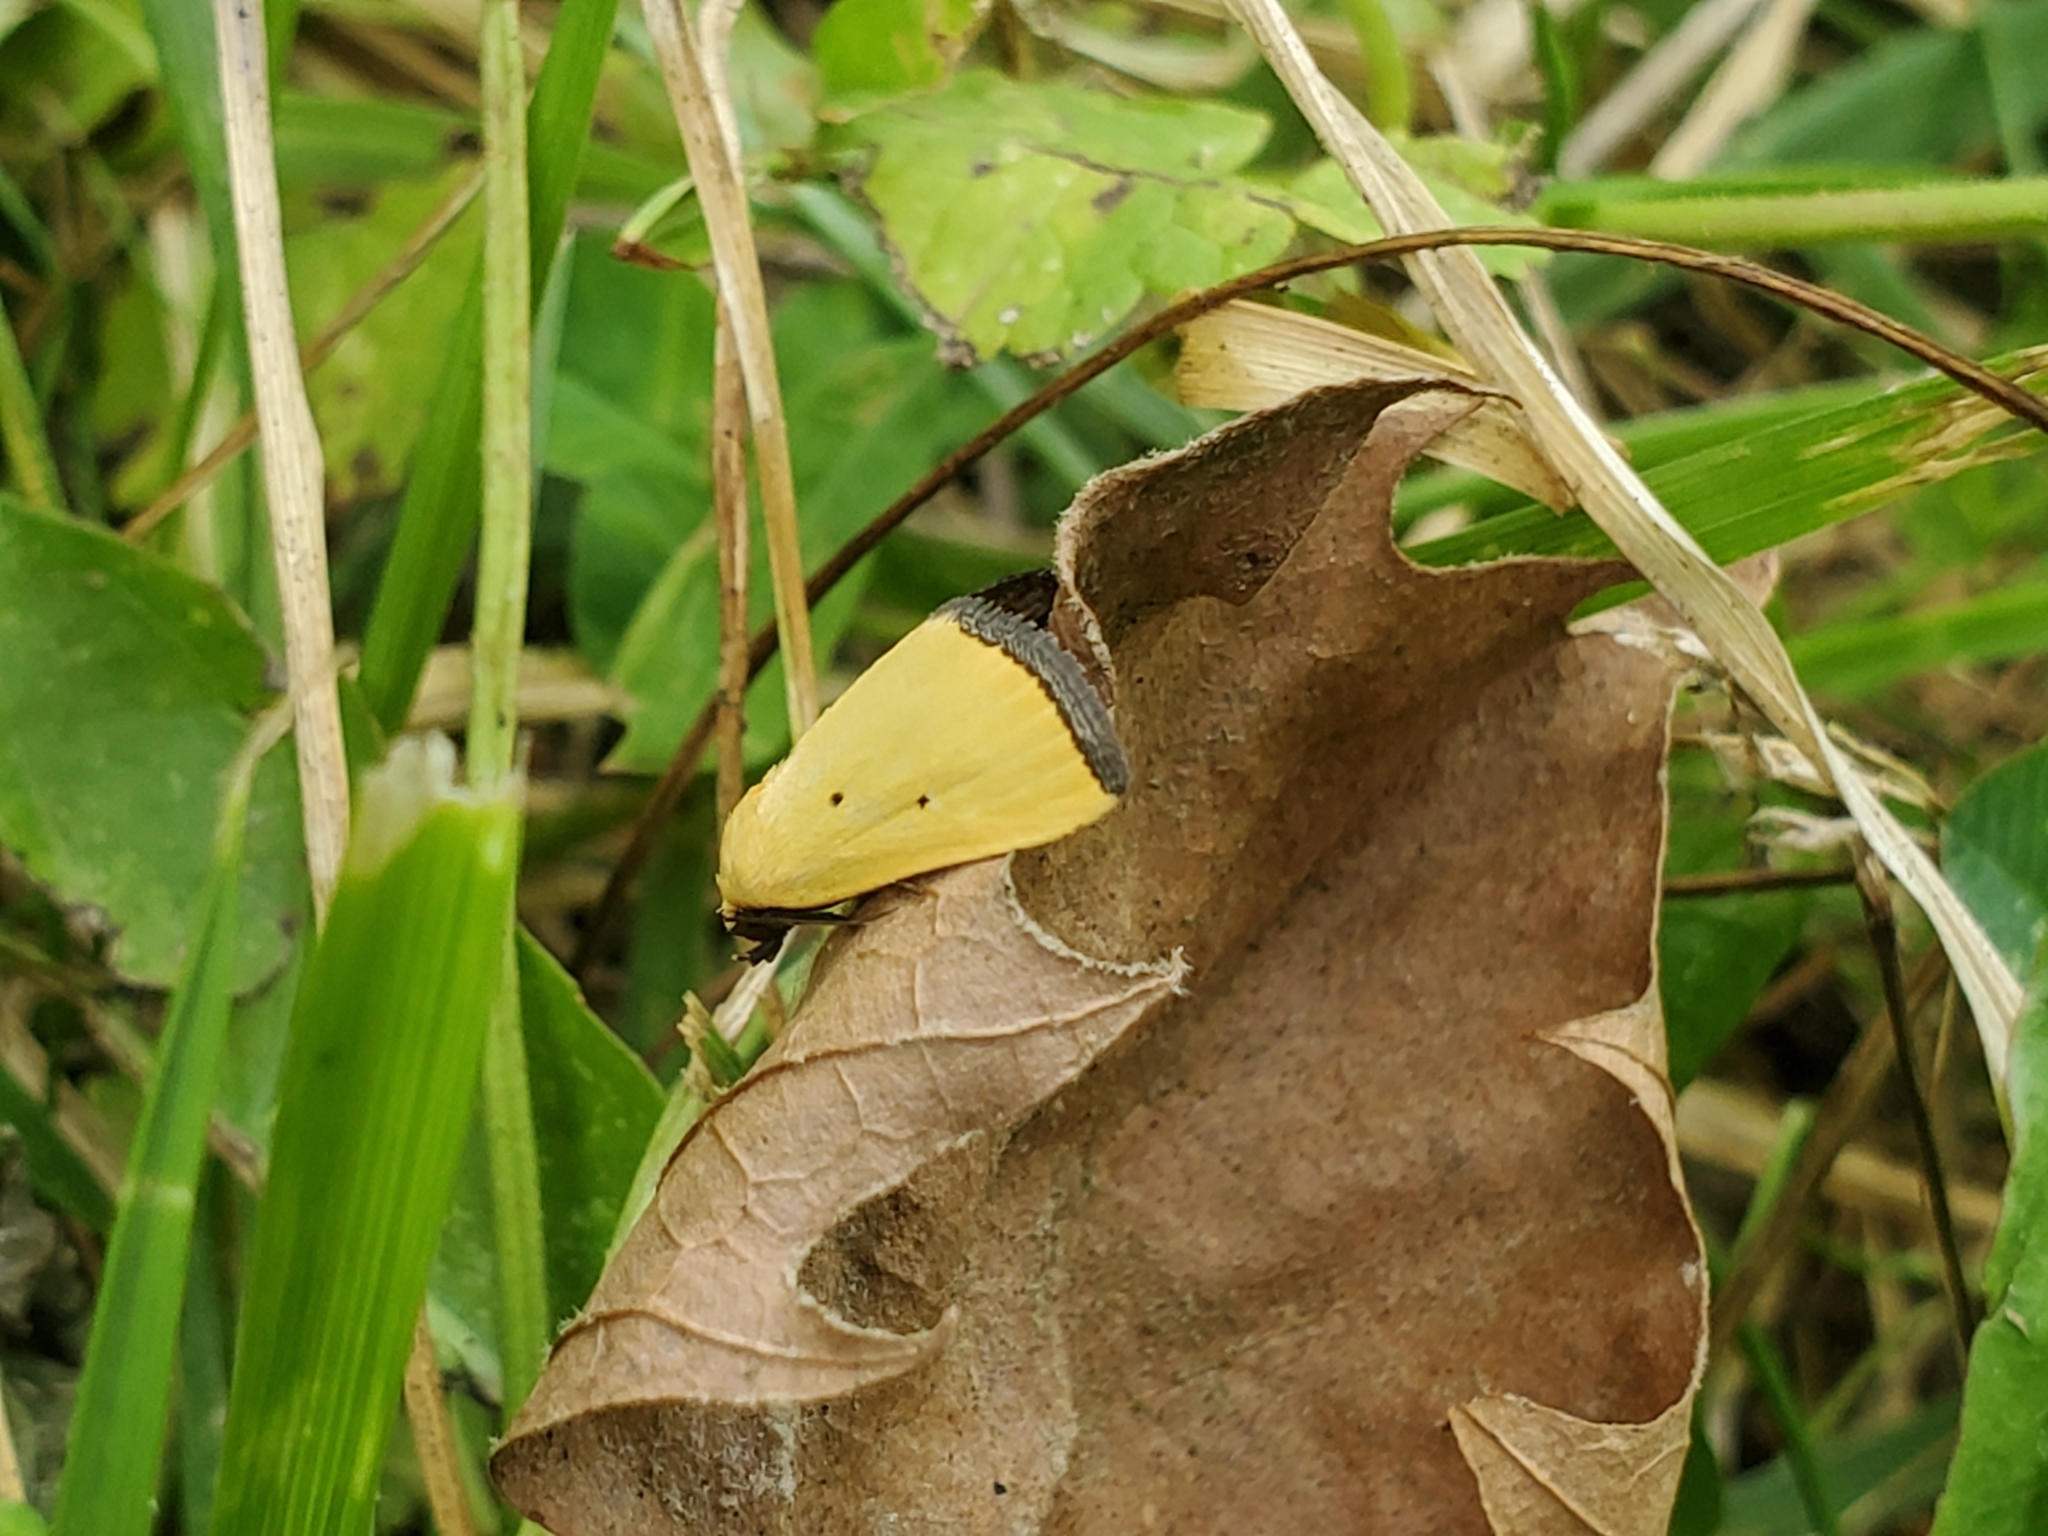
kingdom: Animalia
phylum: Arthropoda
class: Insecta
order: Lepidoptera
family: Noctuidae
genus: Marimatha
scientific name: Marimatha nigrofimbria
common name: Black-bordered lemon moth
